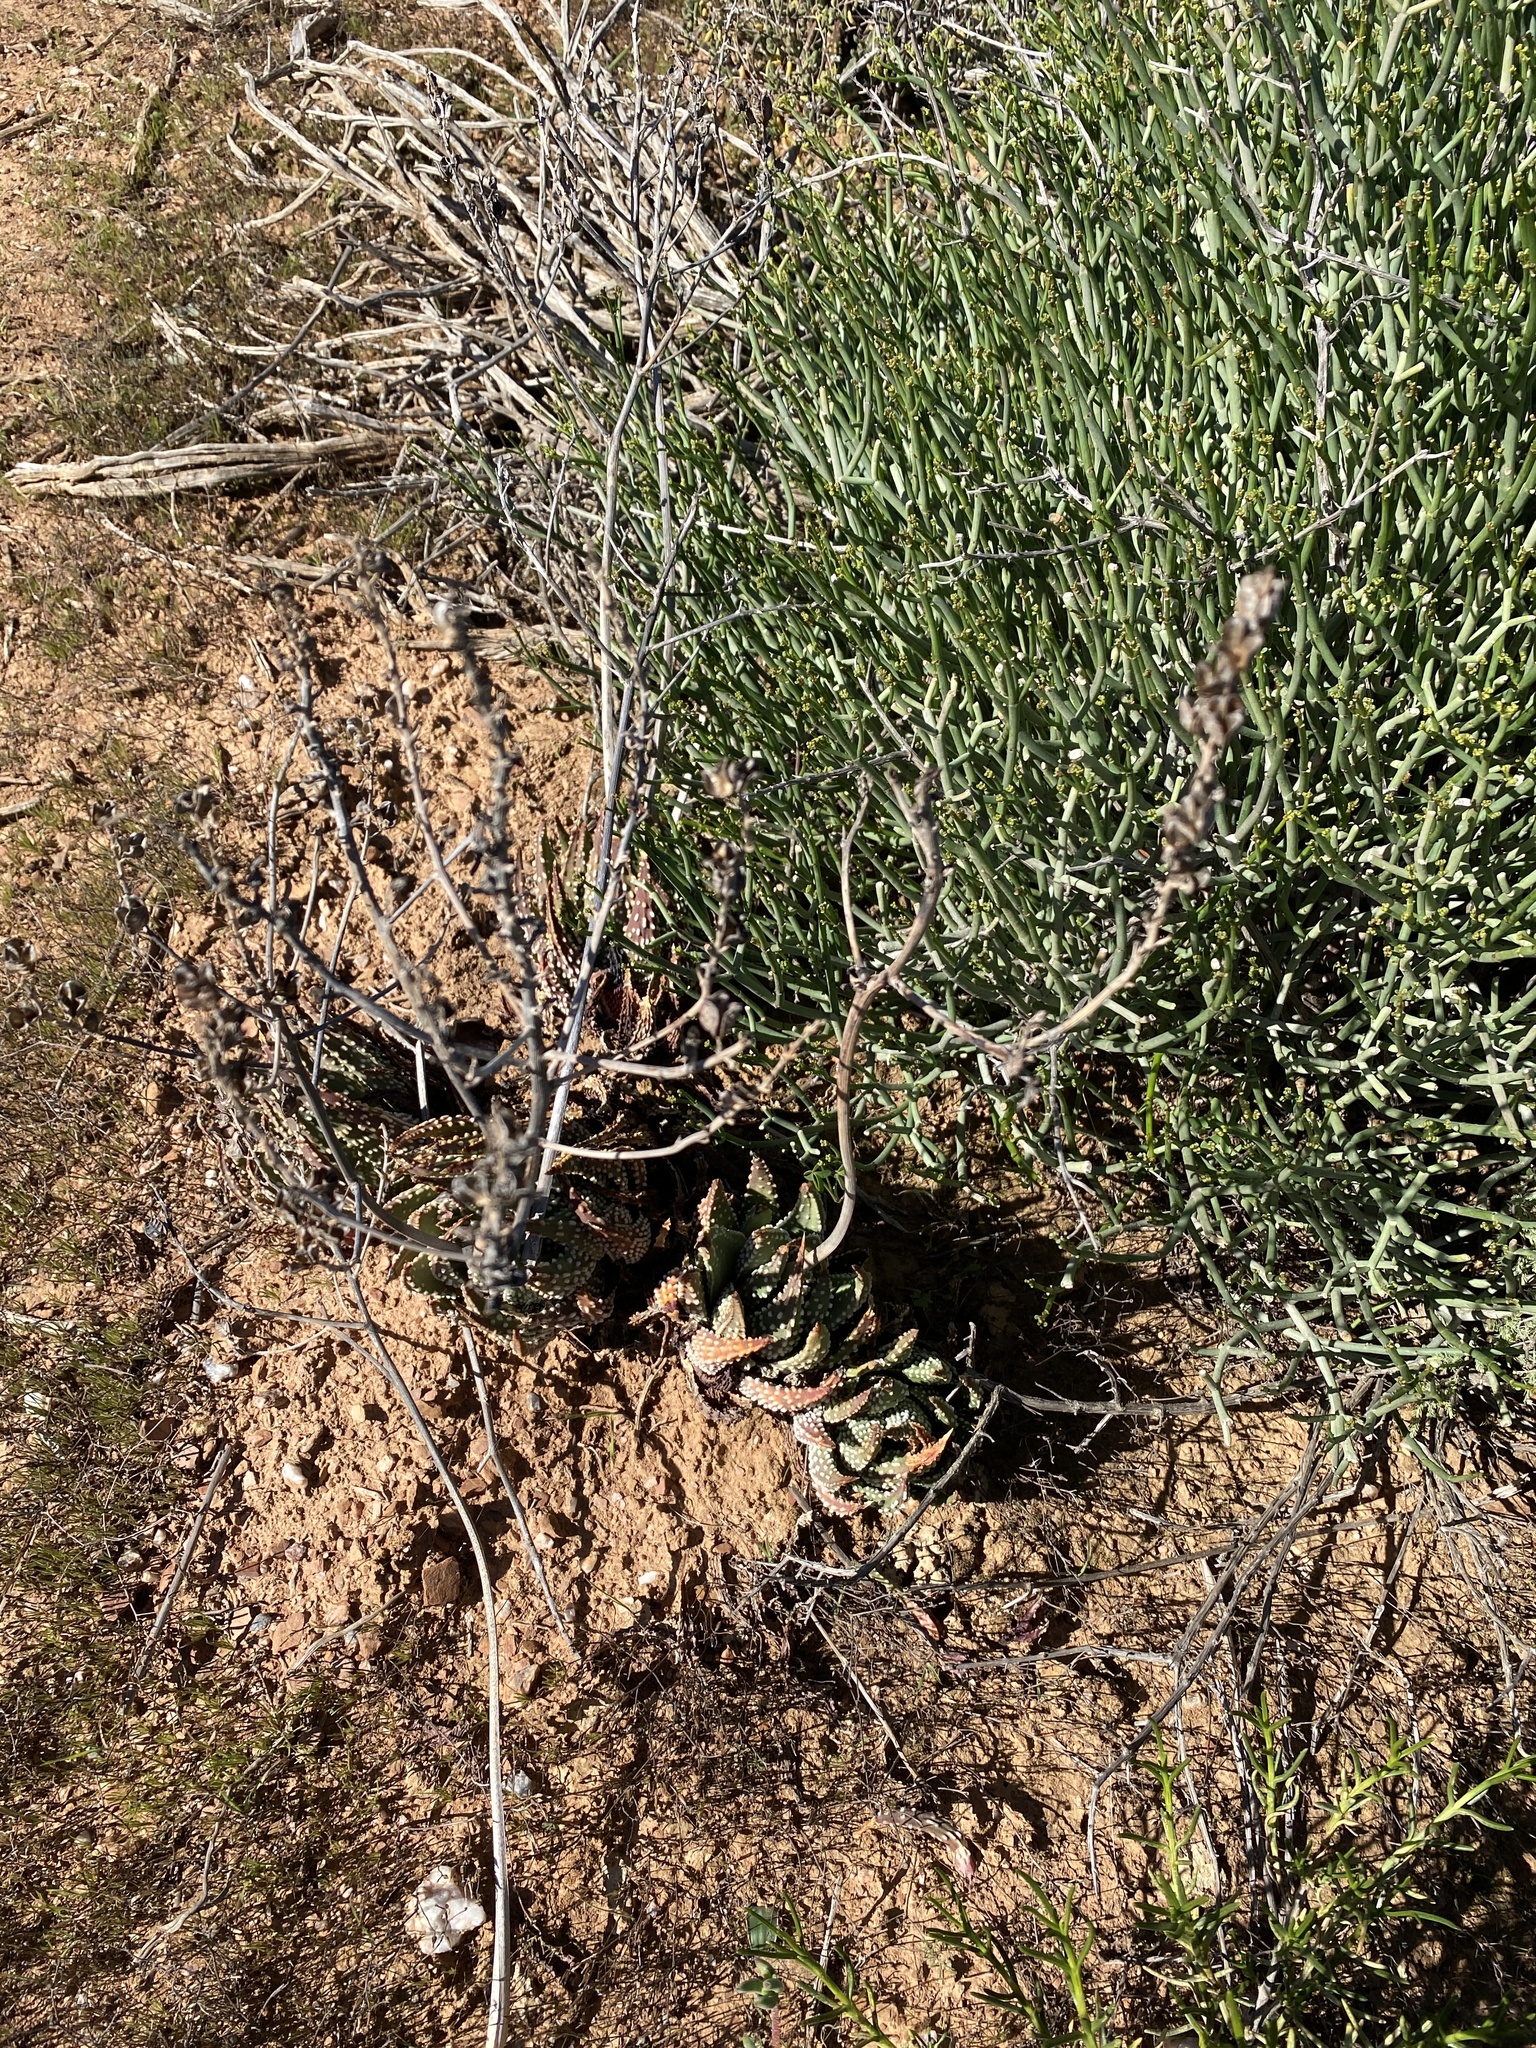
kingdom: Plantae
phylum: Tracheophyta
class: Liliopsida
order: Asparagales
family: Asphodelaceae
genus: Tulista
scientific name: Tulista pumila
